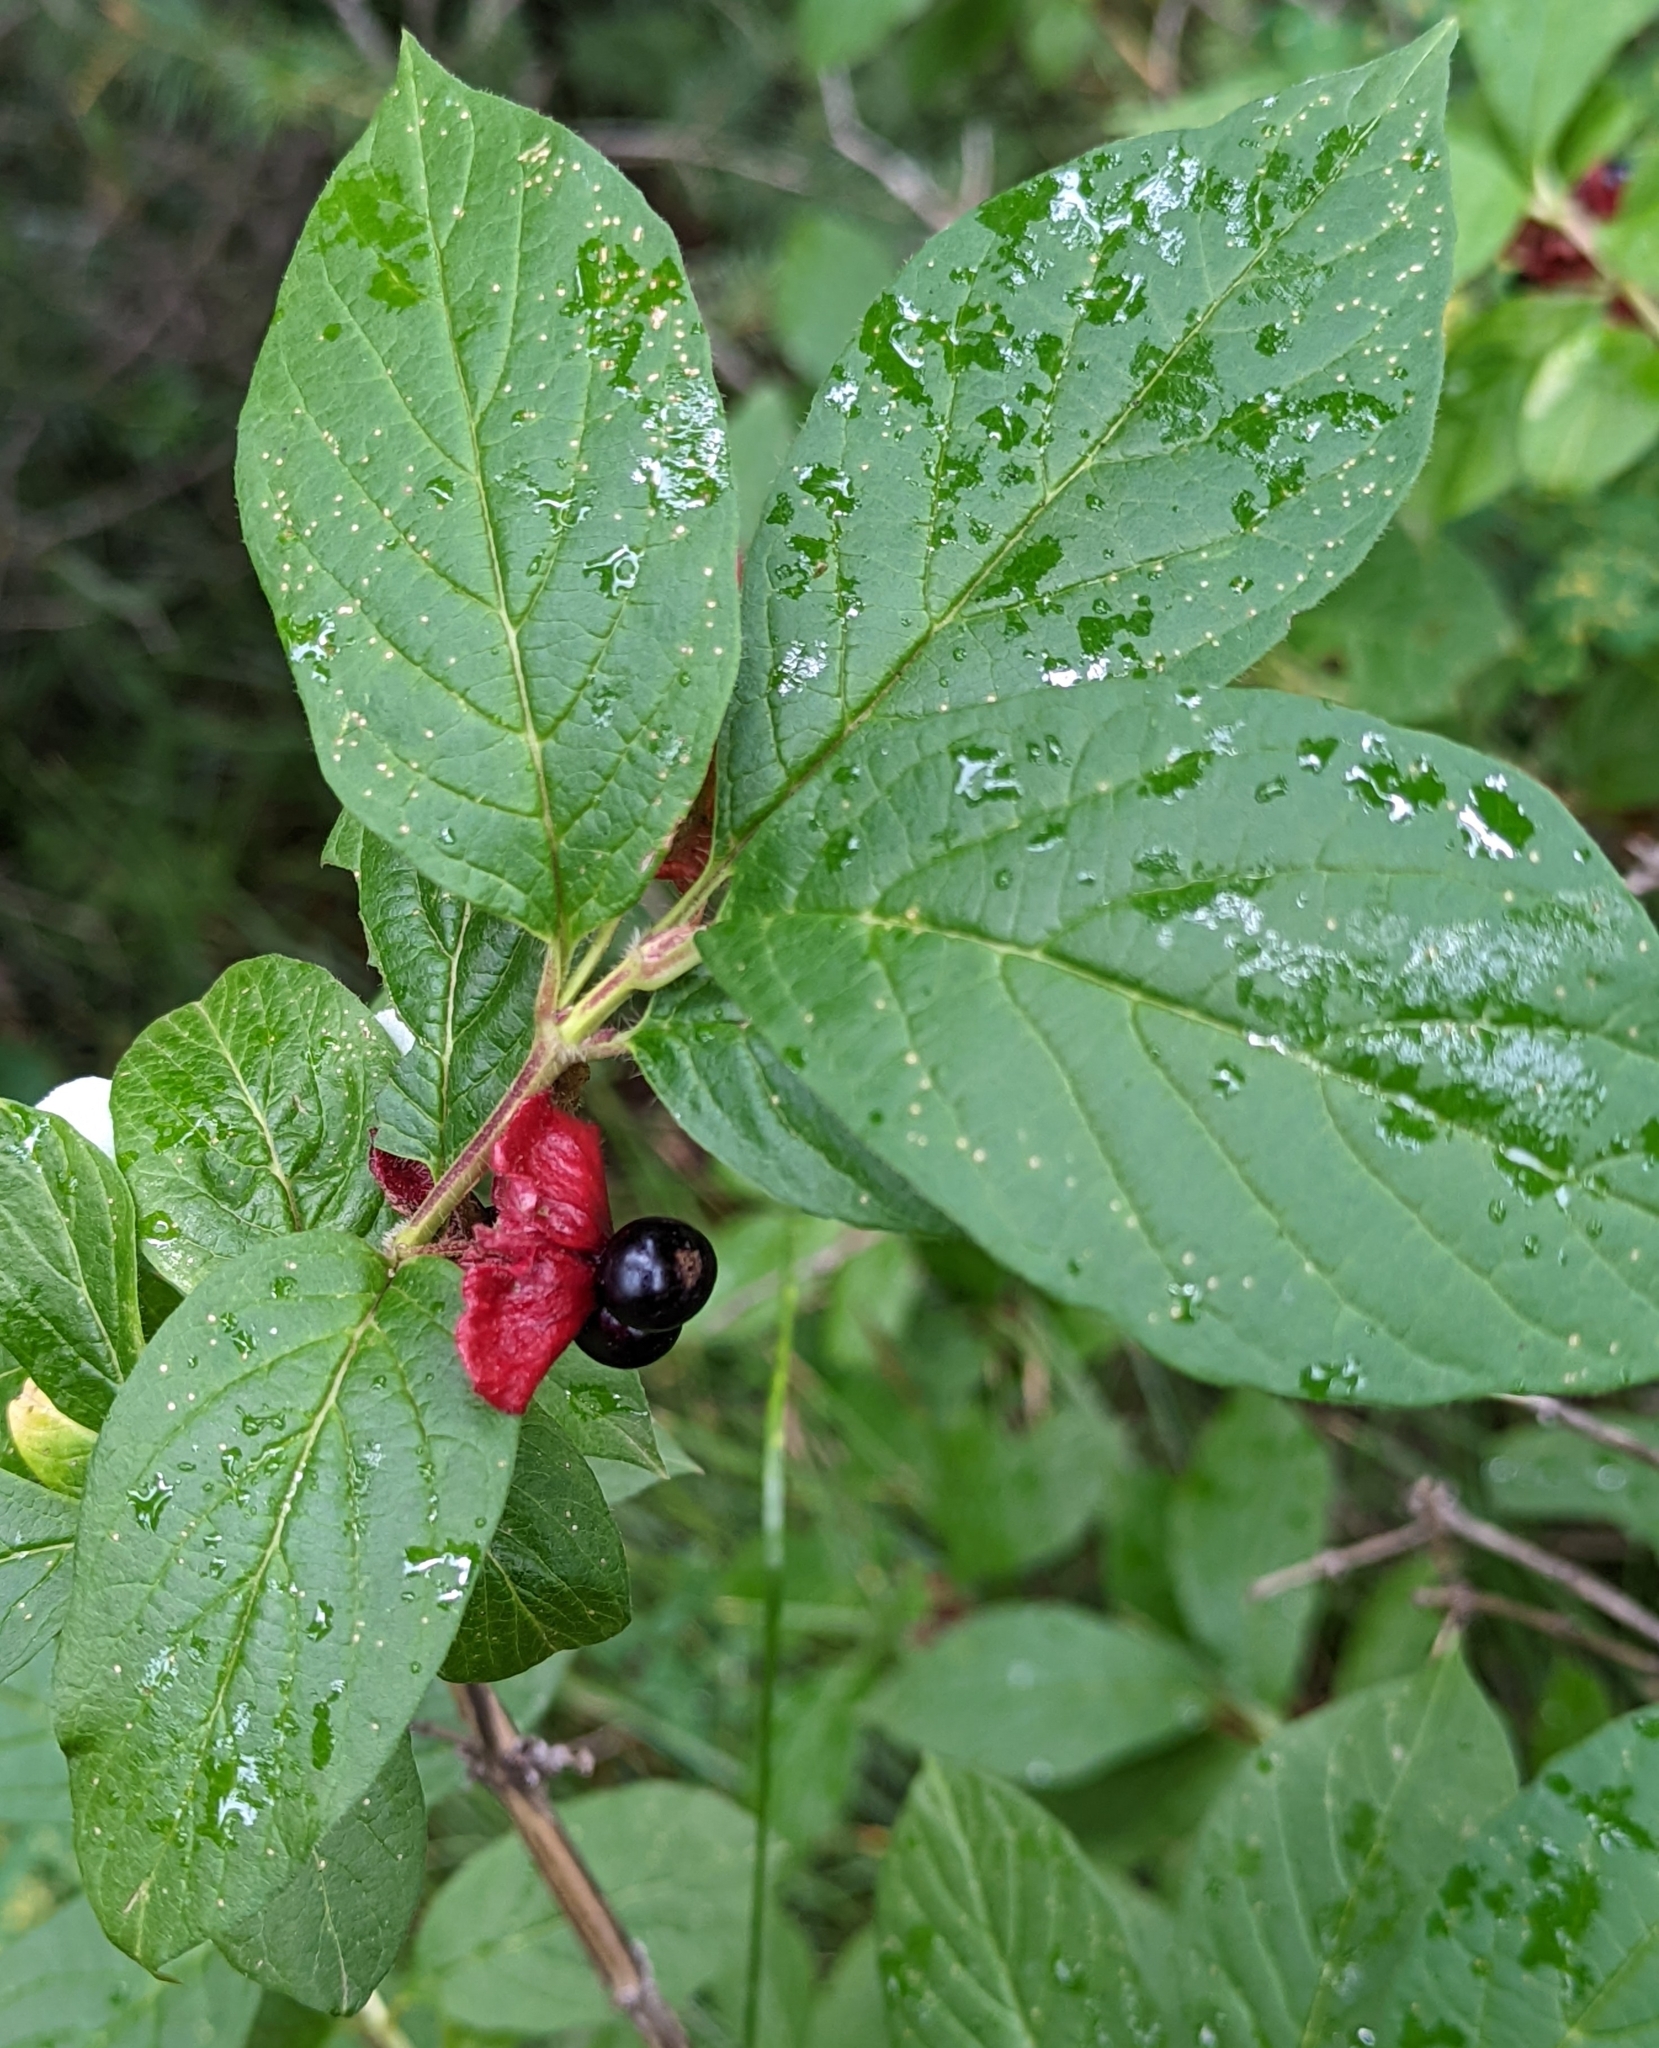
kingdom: Plantae
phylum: Tracheophyta
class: Magnoliopsida
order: Dipsacales
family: Caprifoliaceae
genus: Lonicera
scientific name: Lonicera involucrata
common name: Californian honeysuckle
